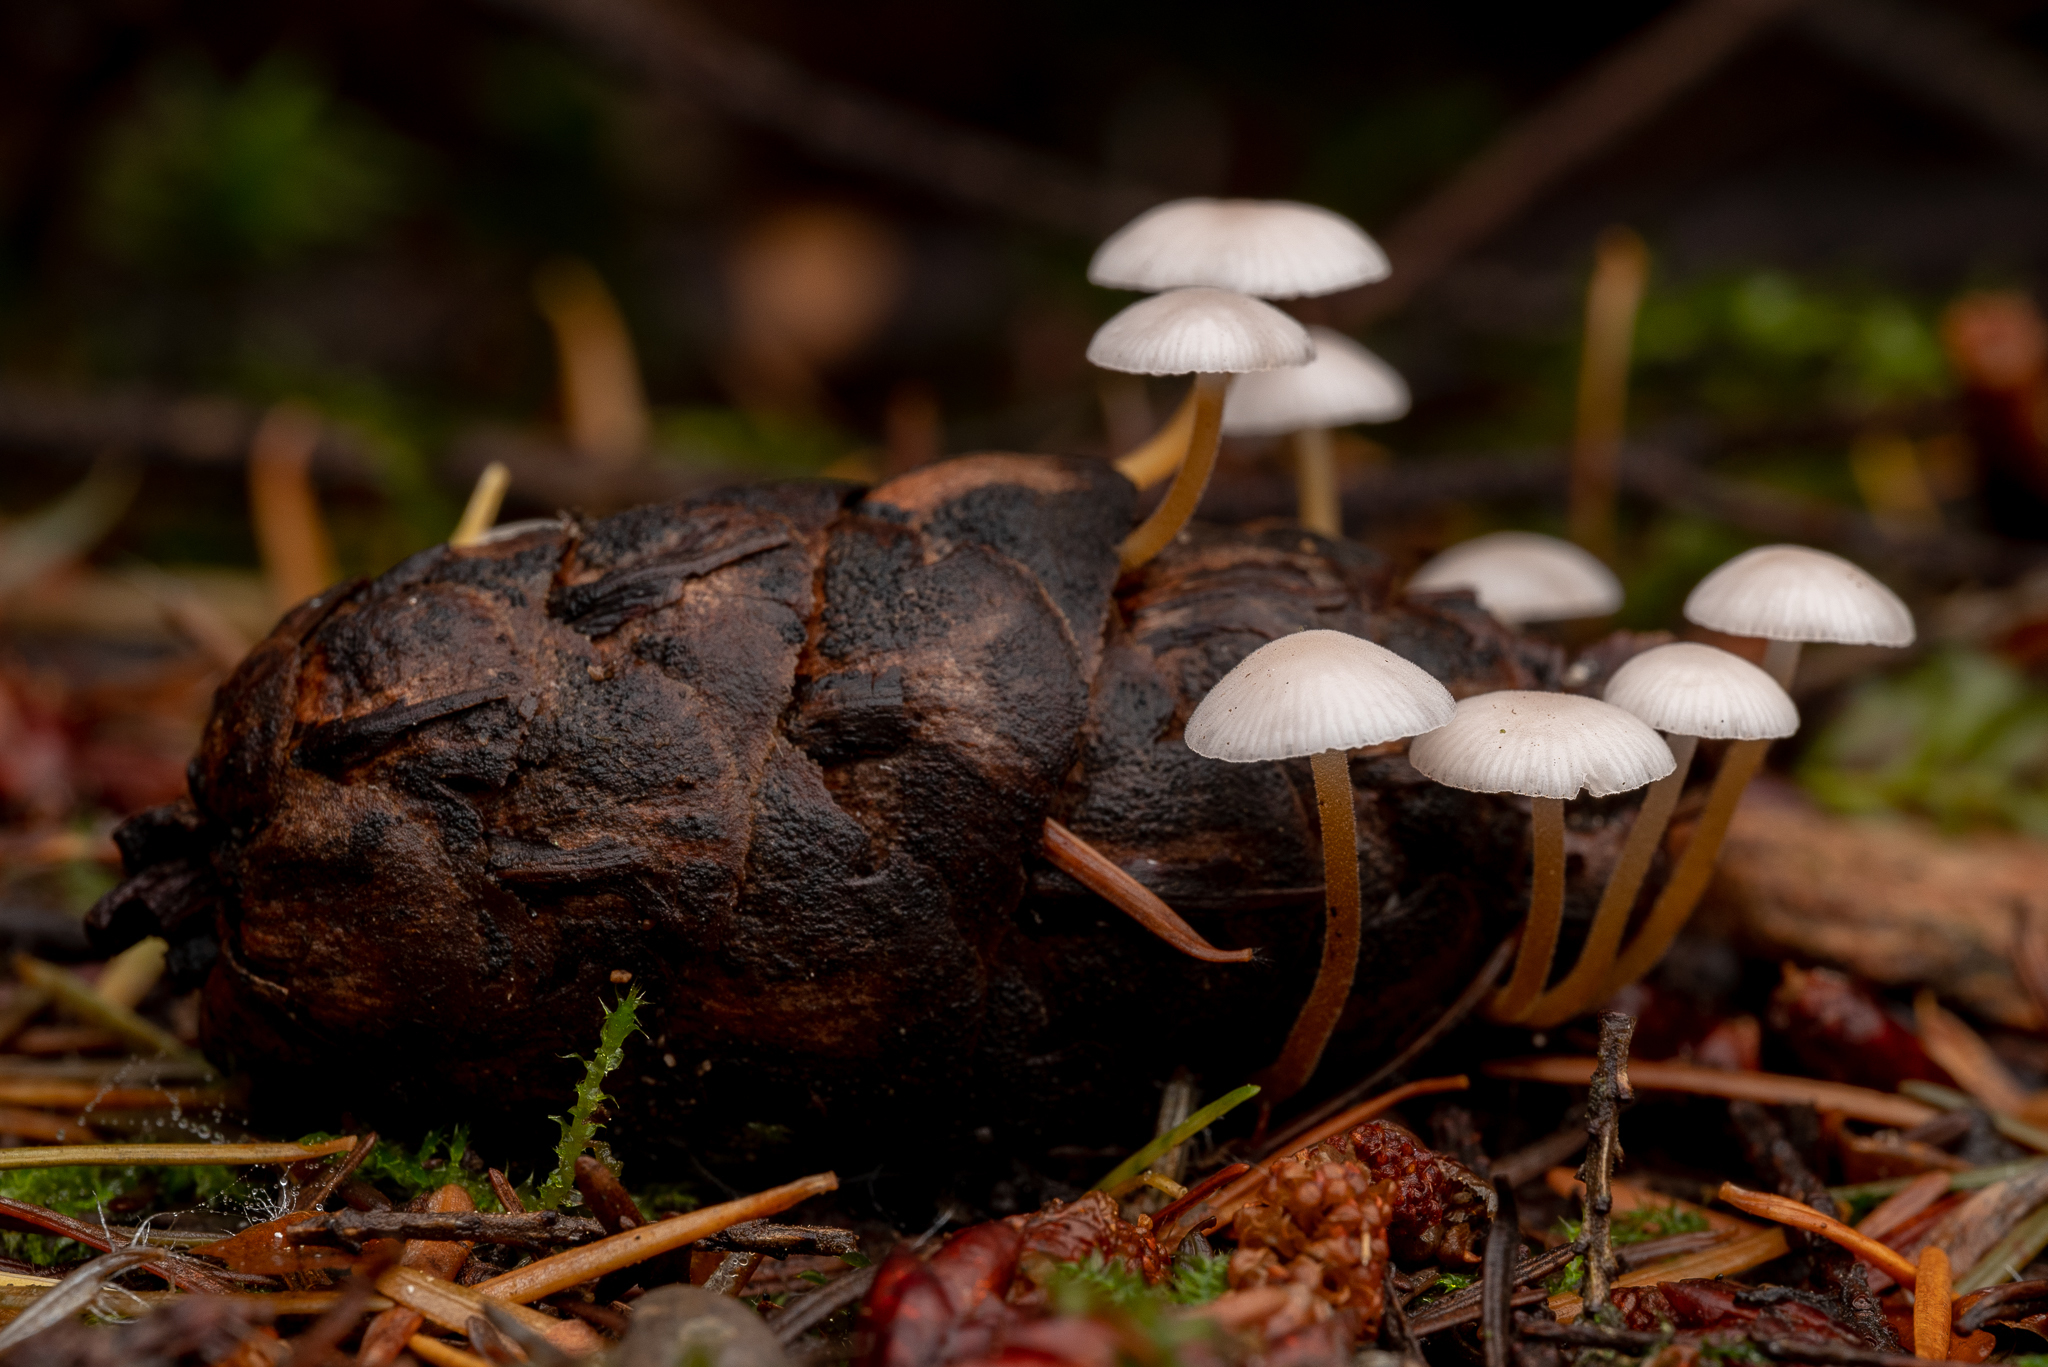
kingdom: Fungi
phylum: Basidiomycota
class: Agaricomycetes
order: Agaricales
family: Physalacriaceae
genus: Strobilurus
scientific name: Strobilurus trullisatus
